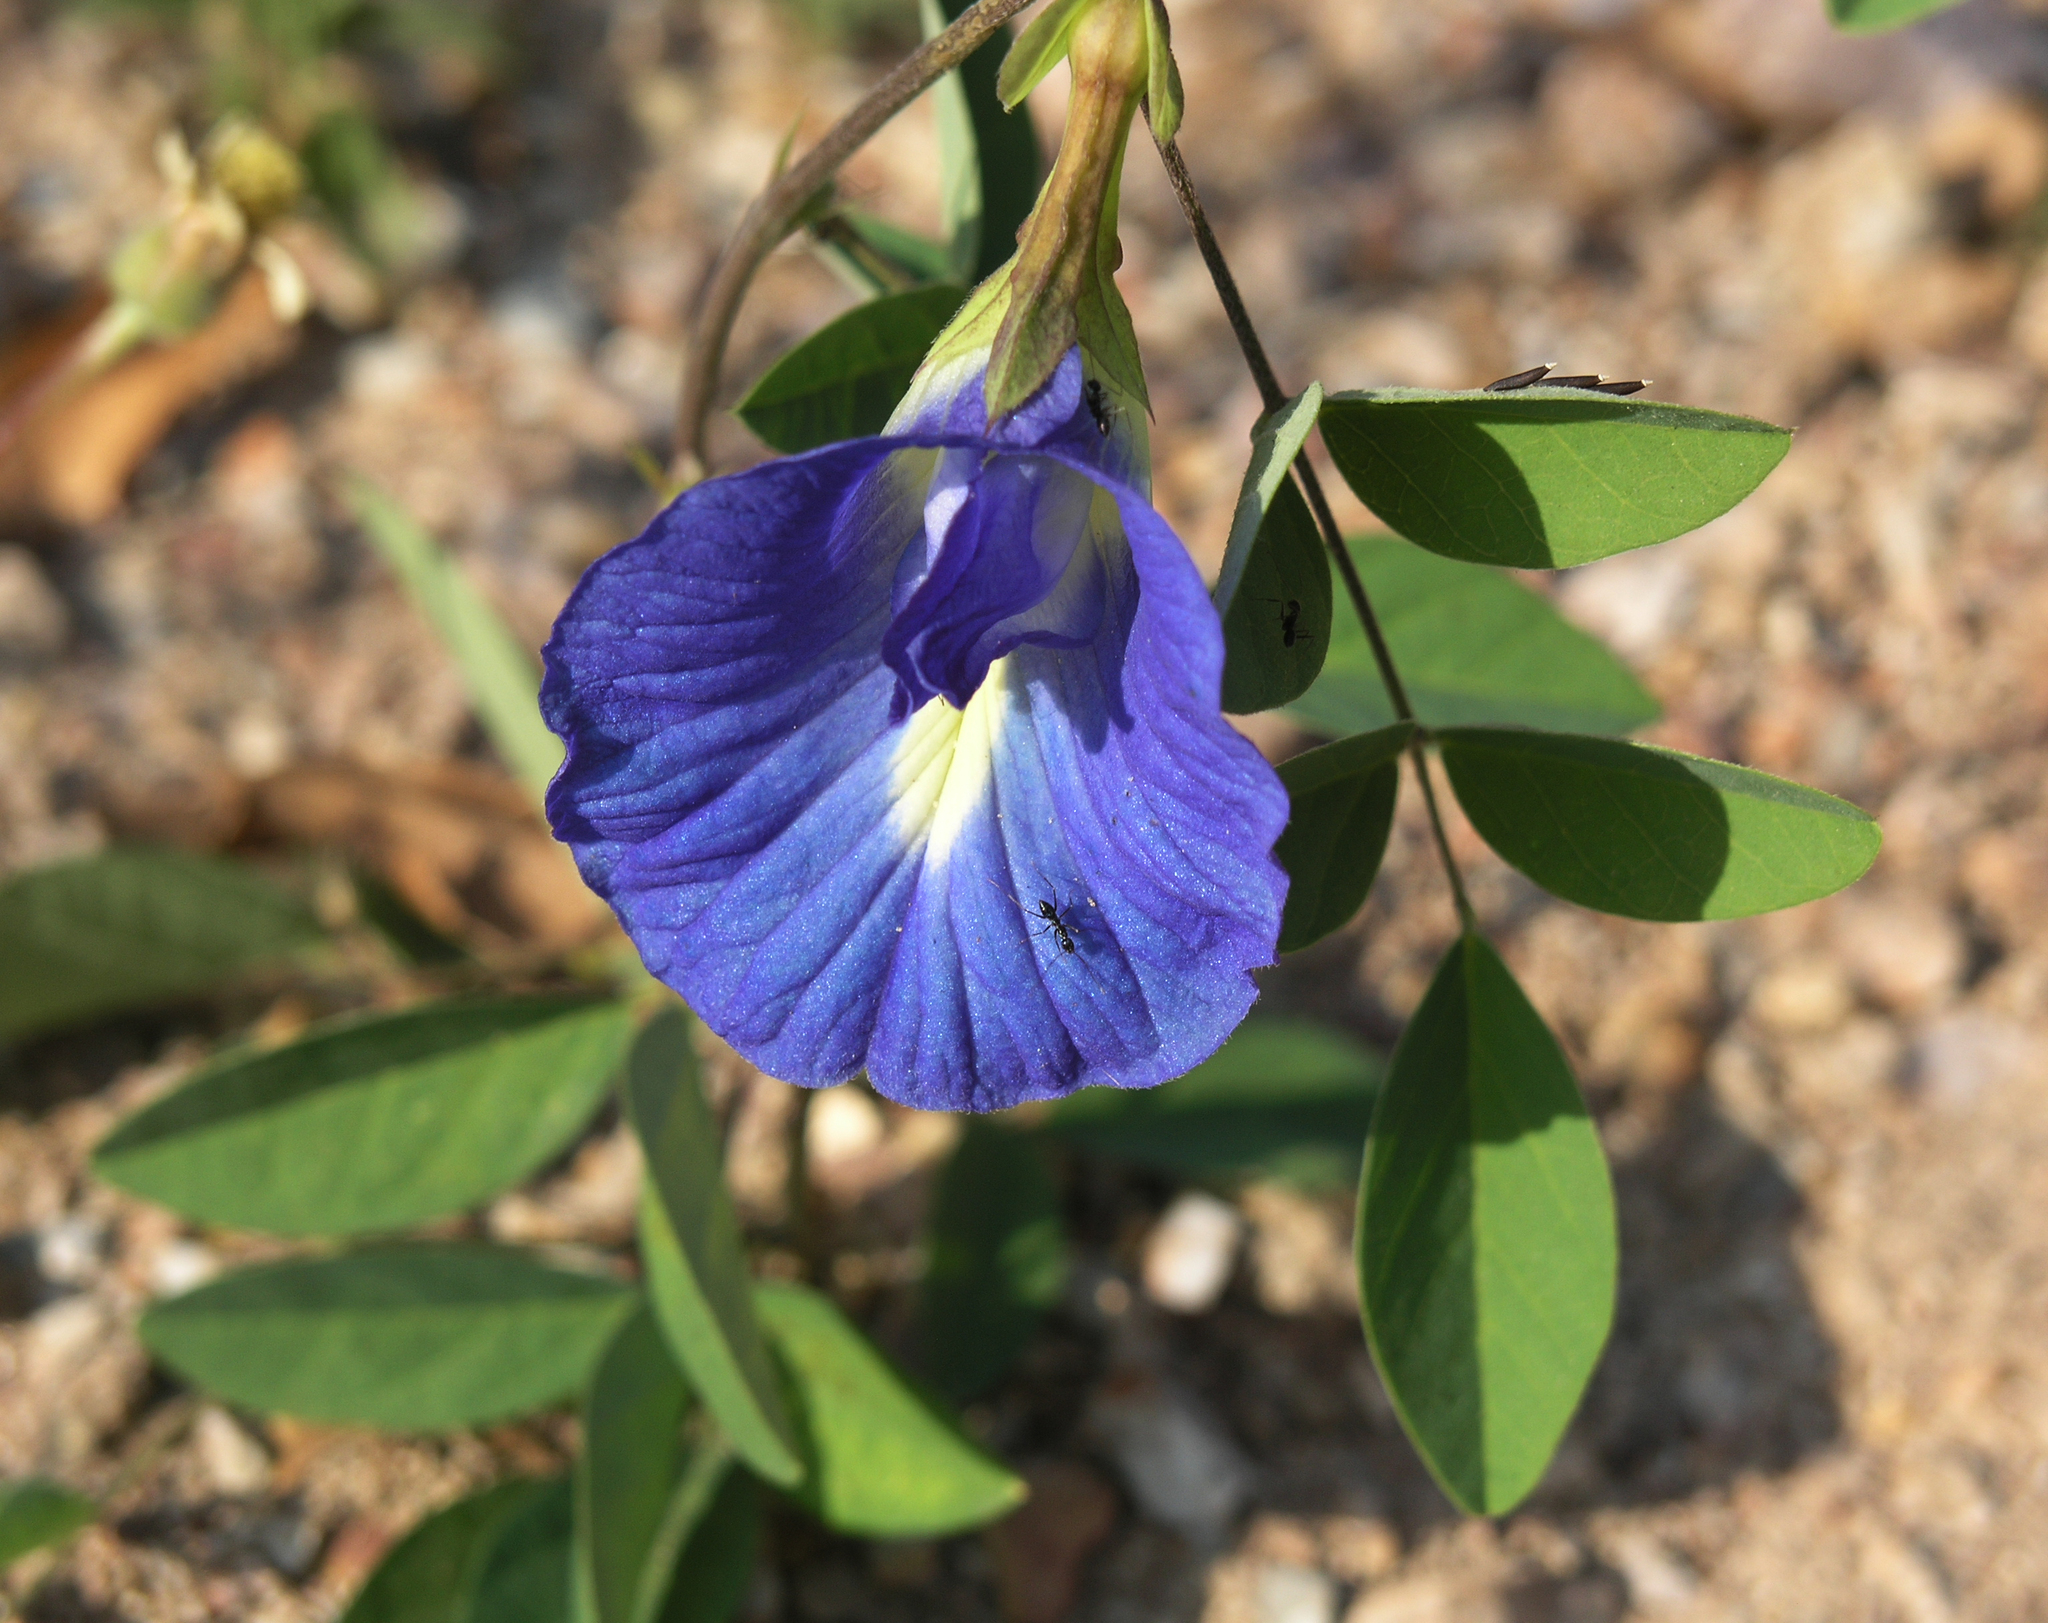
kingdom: Plantae
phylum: Tracheophyta
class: Magnoliopsida
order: Fabales
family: Fabaceae
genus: Clitoria
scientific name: Clitoria ternatea
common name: Asian pigeonwings
